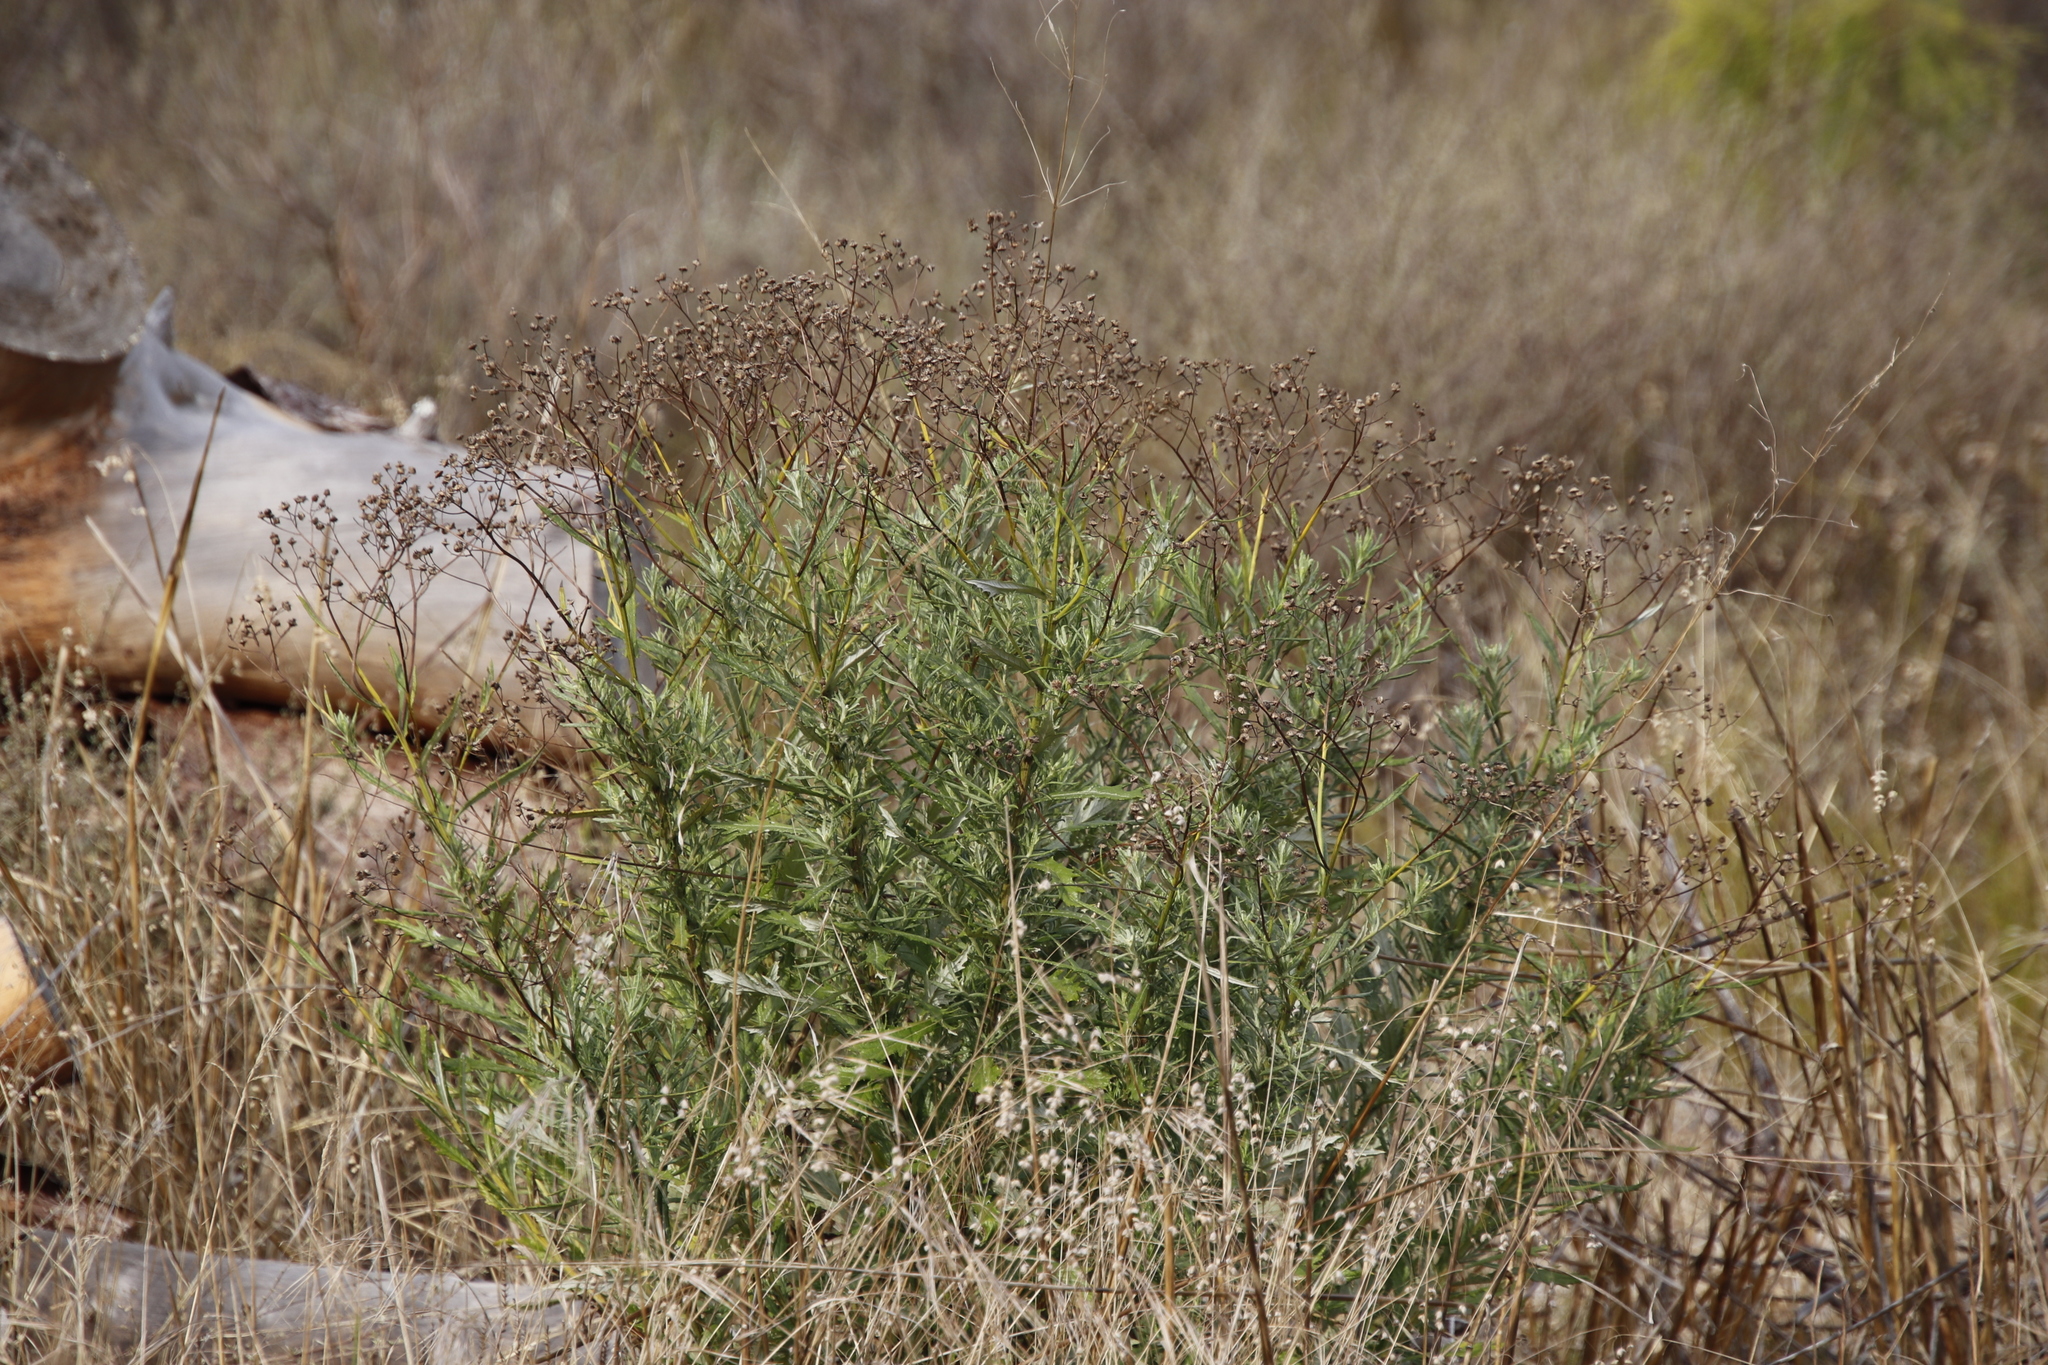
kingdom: Plantae
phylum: Tracheophyta
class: Magnoliopsida
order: Asterales
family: Asteraceae
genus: Senecio
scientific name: Senecio pterophorus
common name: Shoddy ragwort
